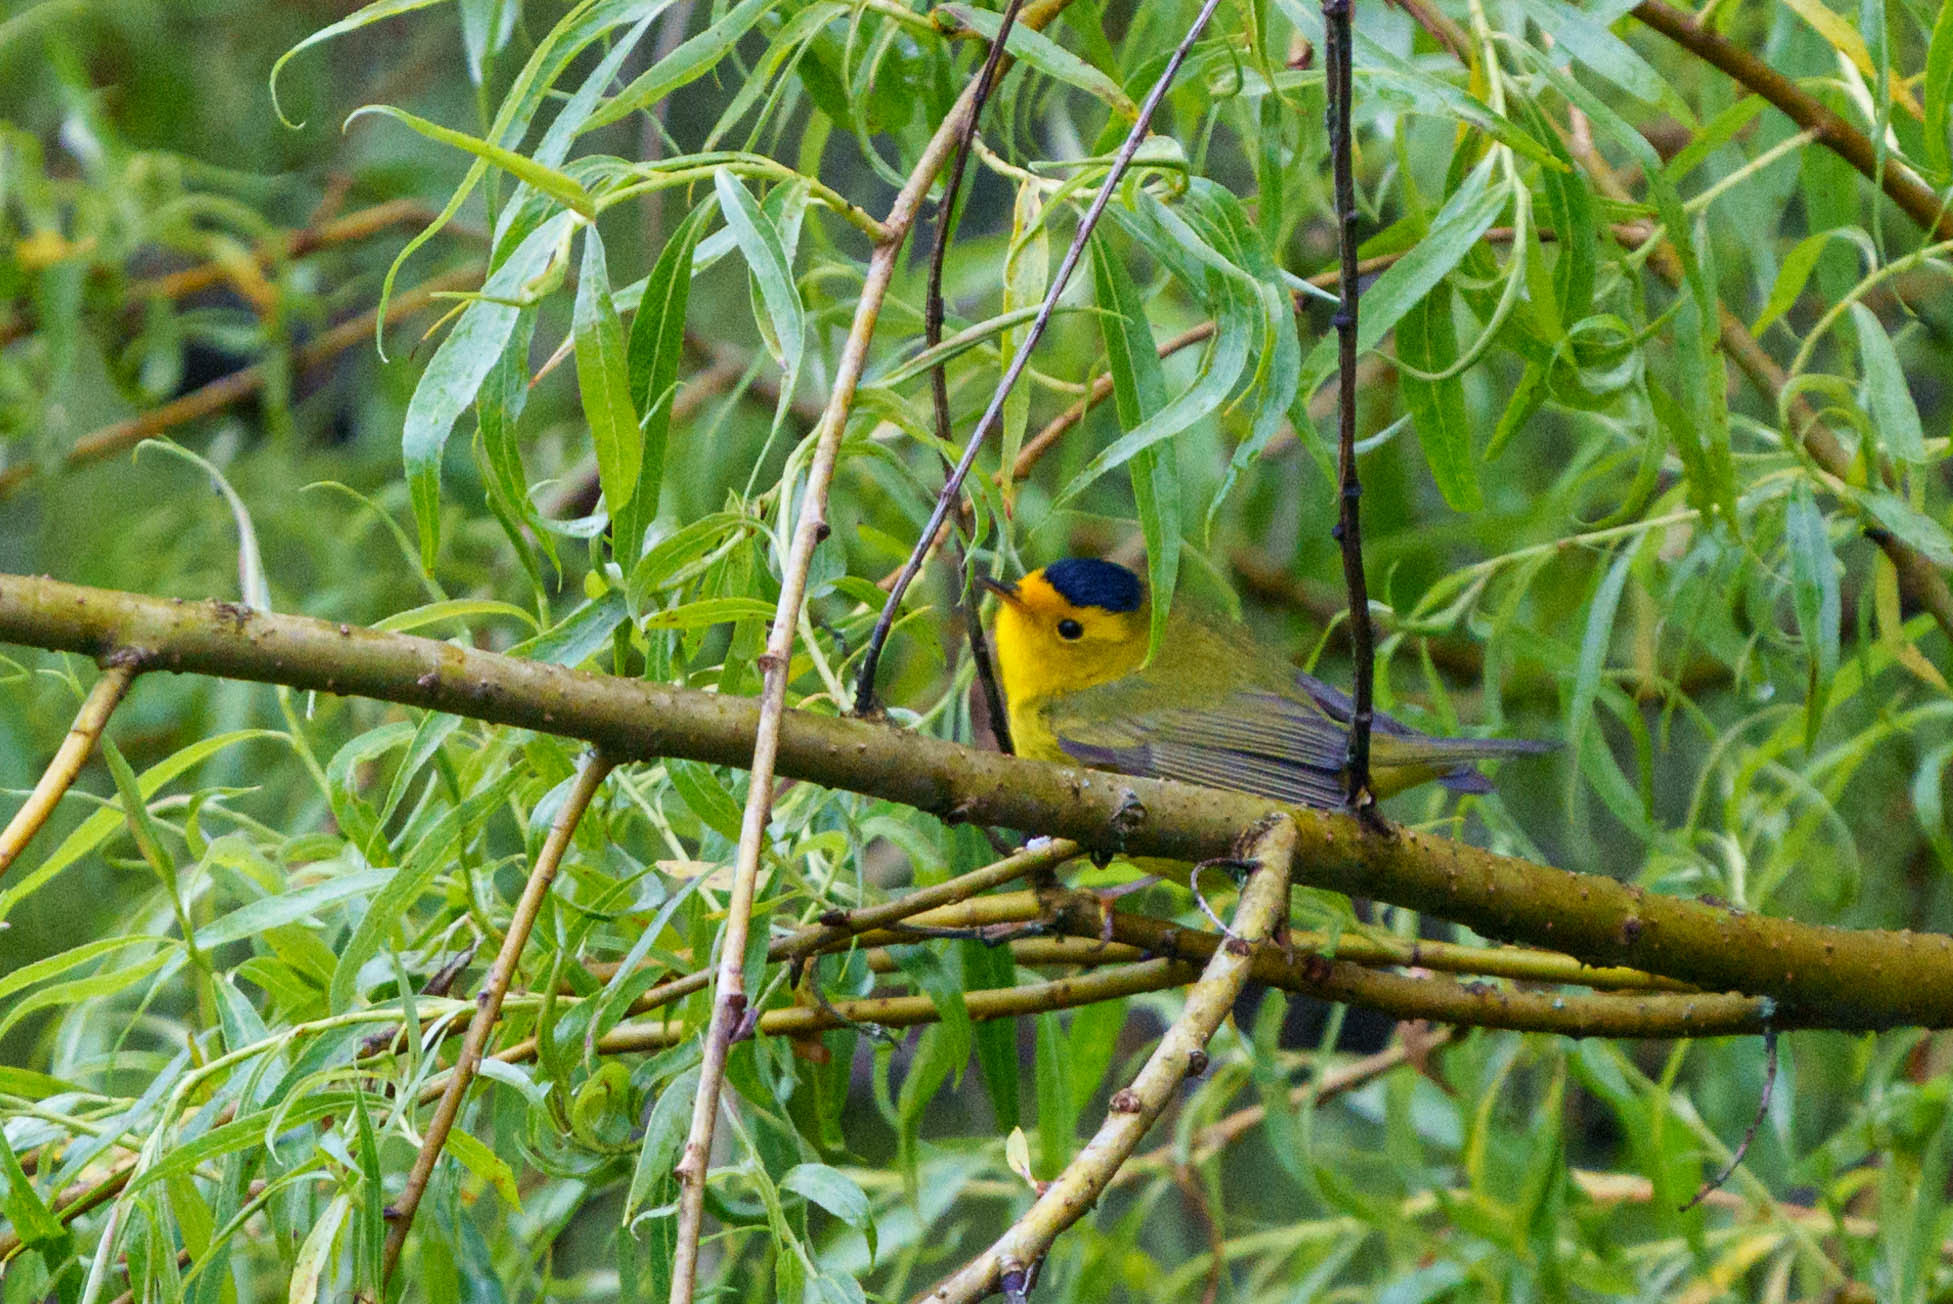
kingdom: Animalia
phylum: Chordata
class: Aves
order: Passeriformes
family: Parulidae
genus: Cardellina
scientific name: Cardellina pusilla
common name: Wilson's warbler
